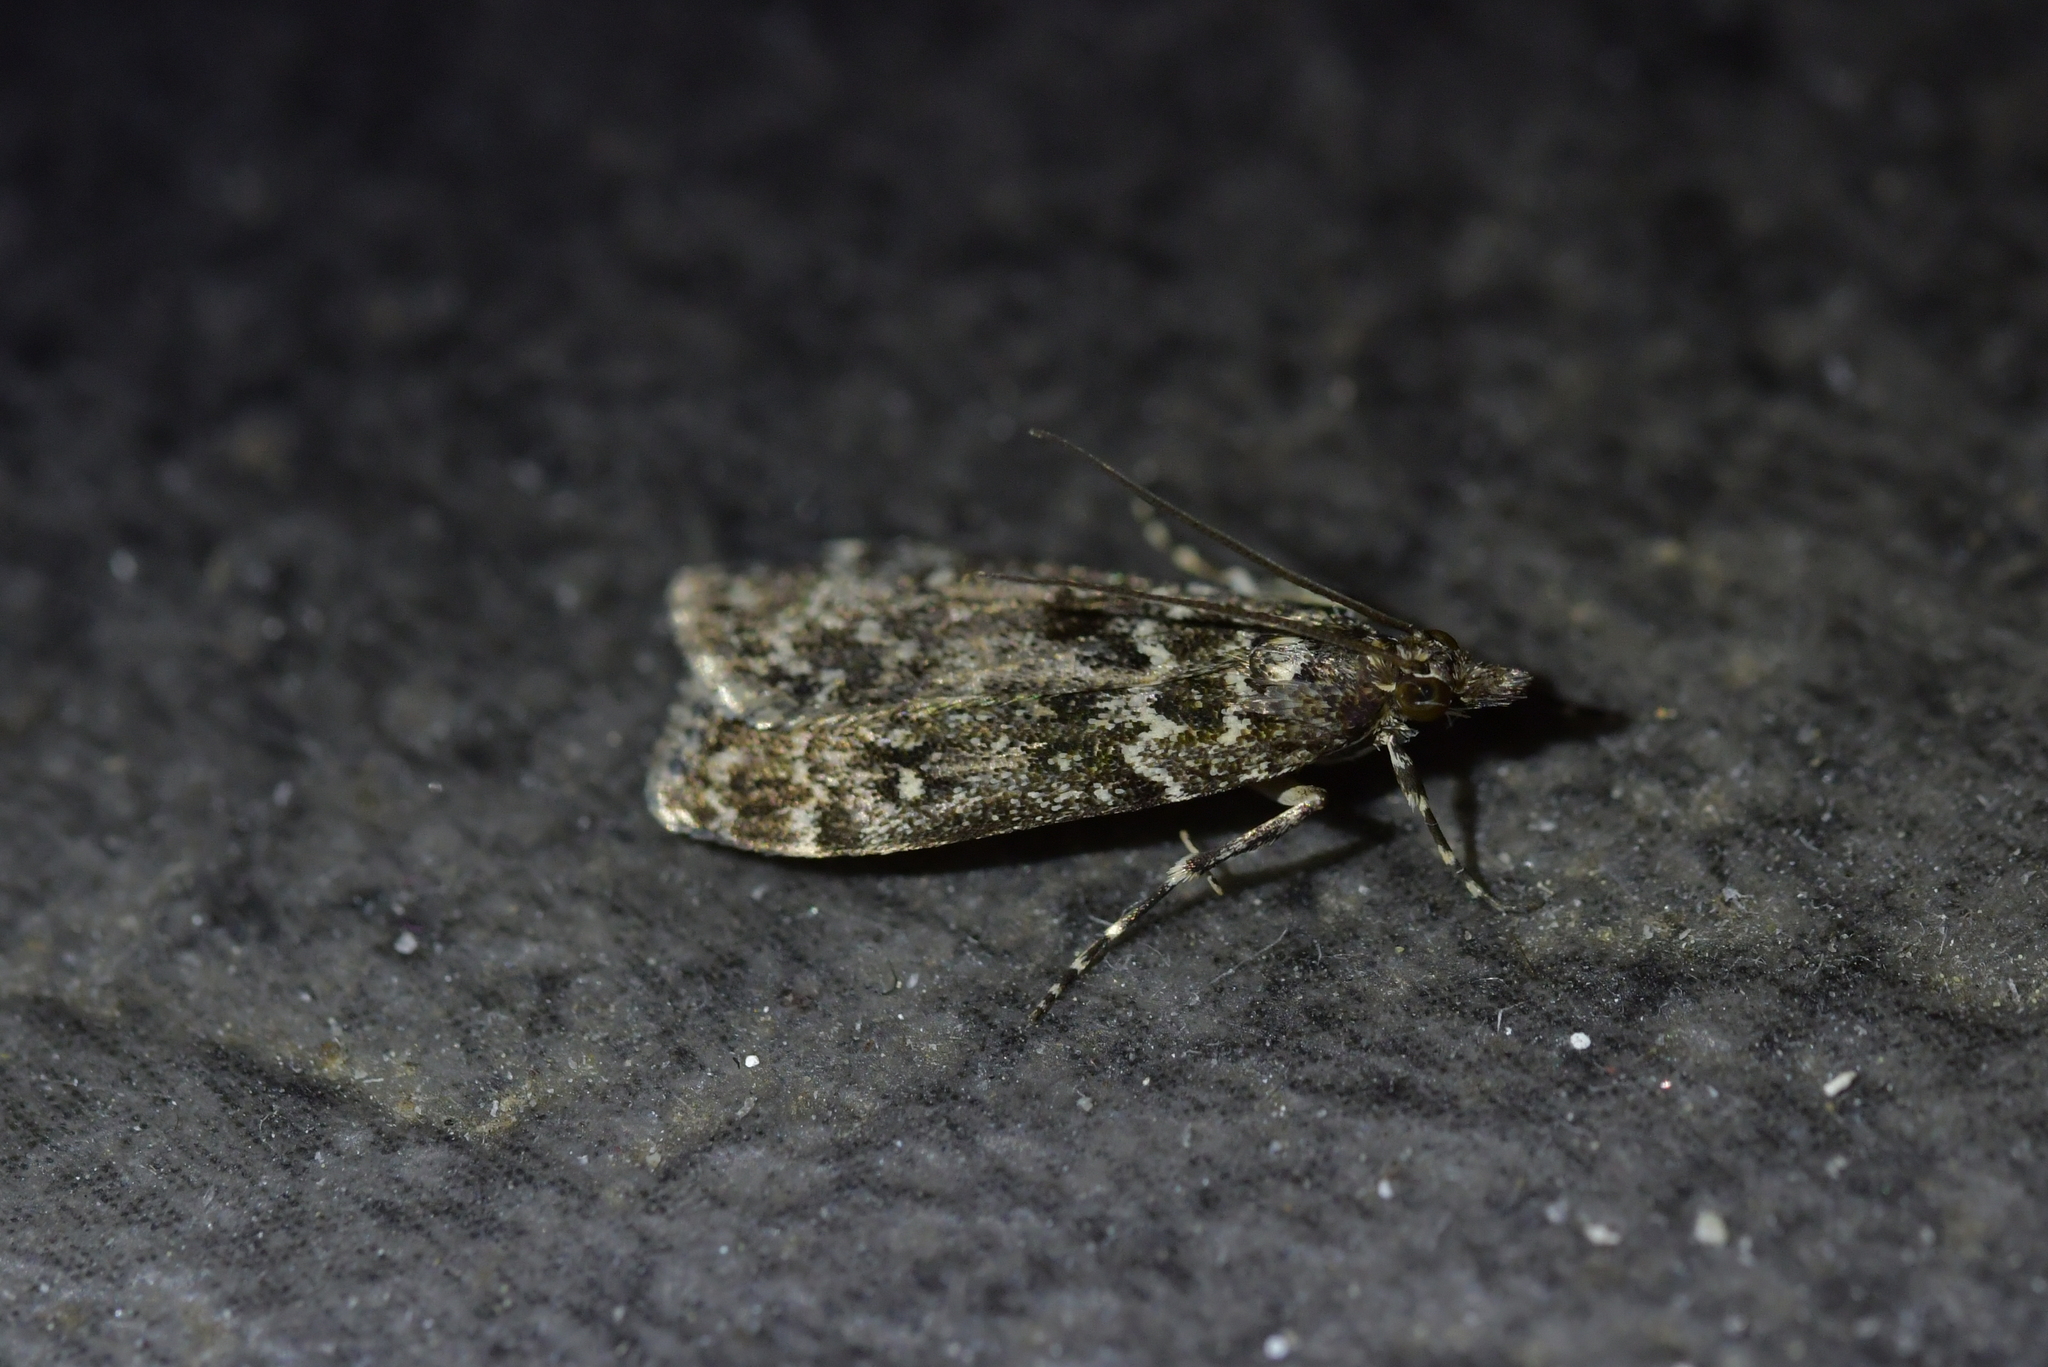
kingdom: Animalia
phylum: Arthropoda
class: Insecta
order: Lepidoptera
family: Crambidae
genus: Eudonia
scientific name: Eudonia philerga
